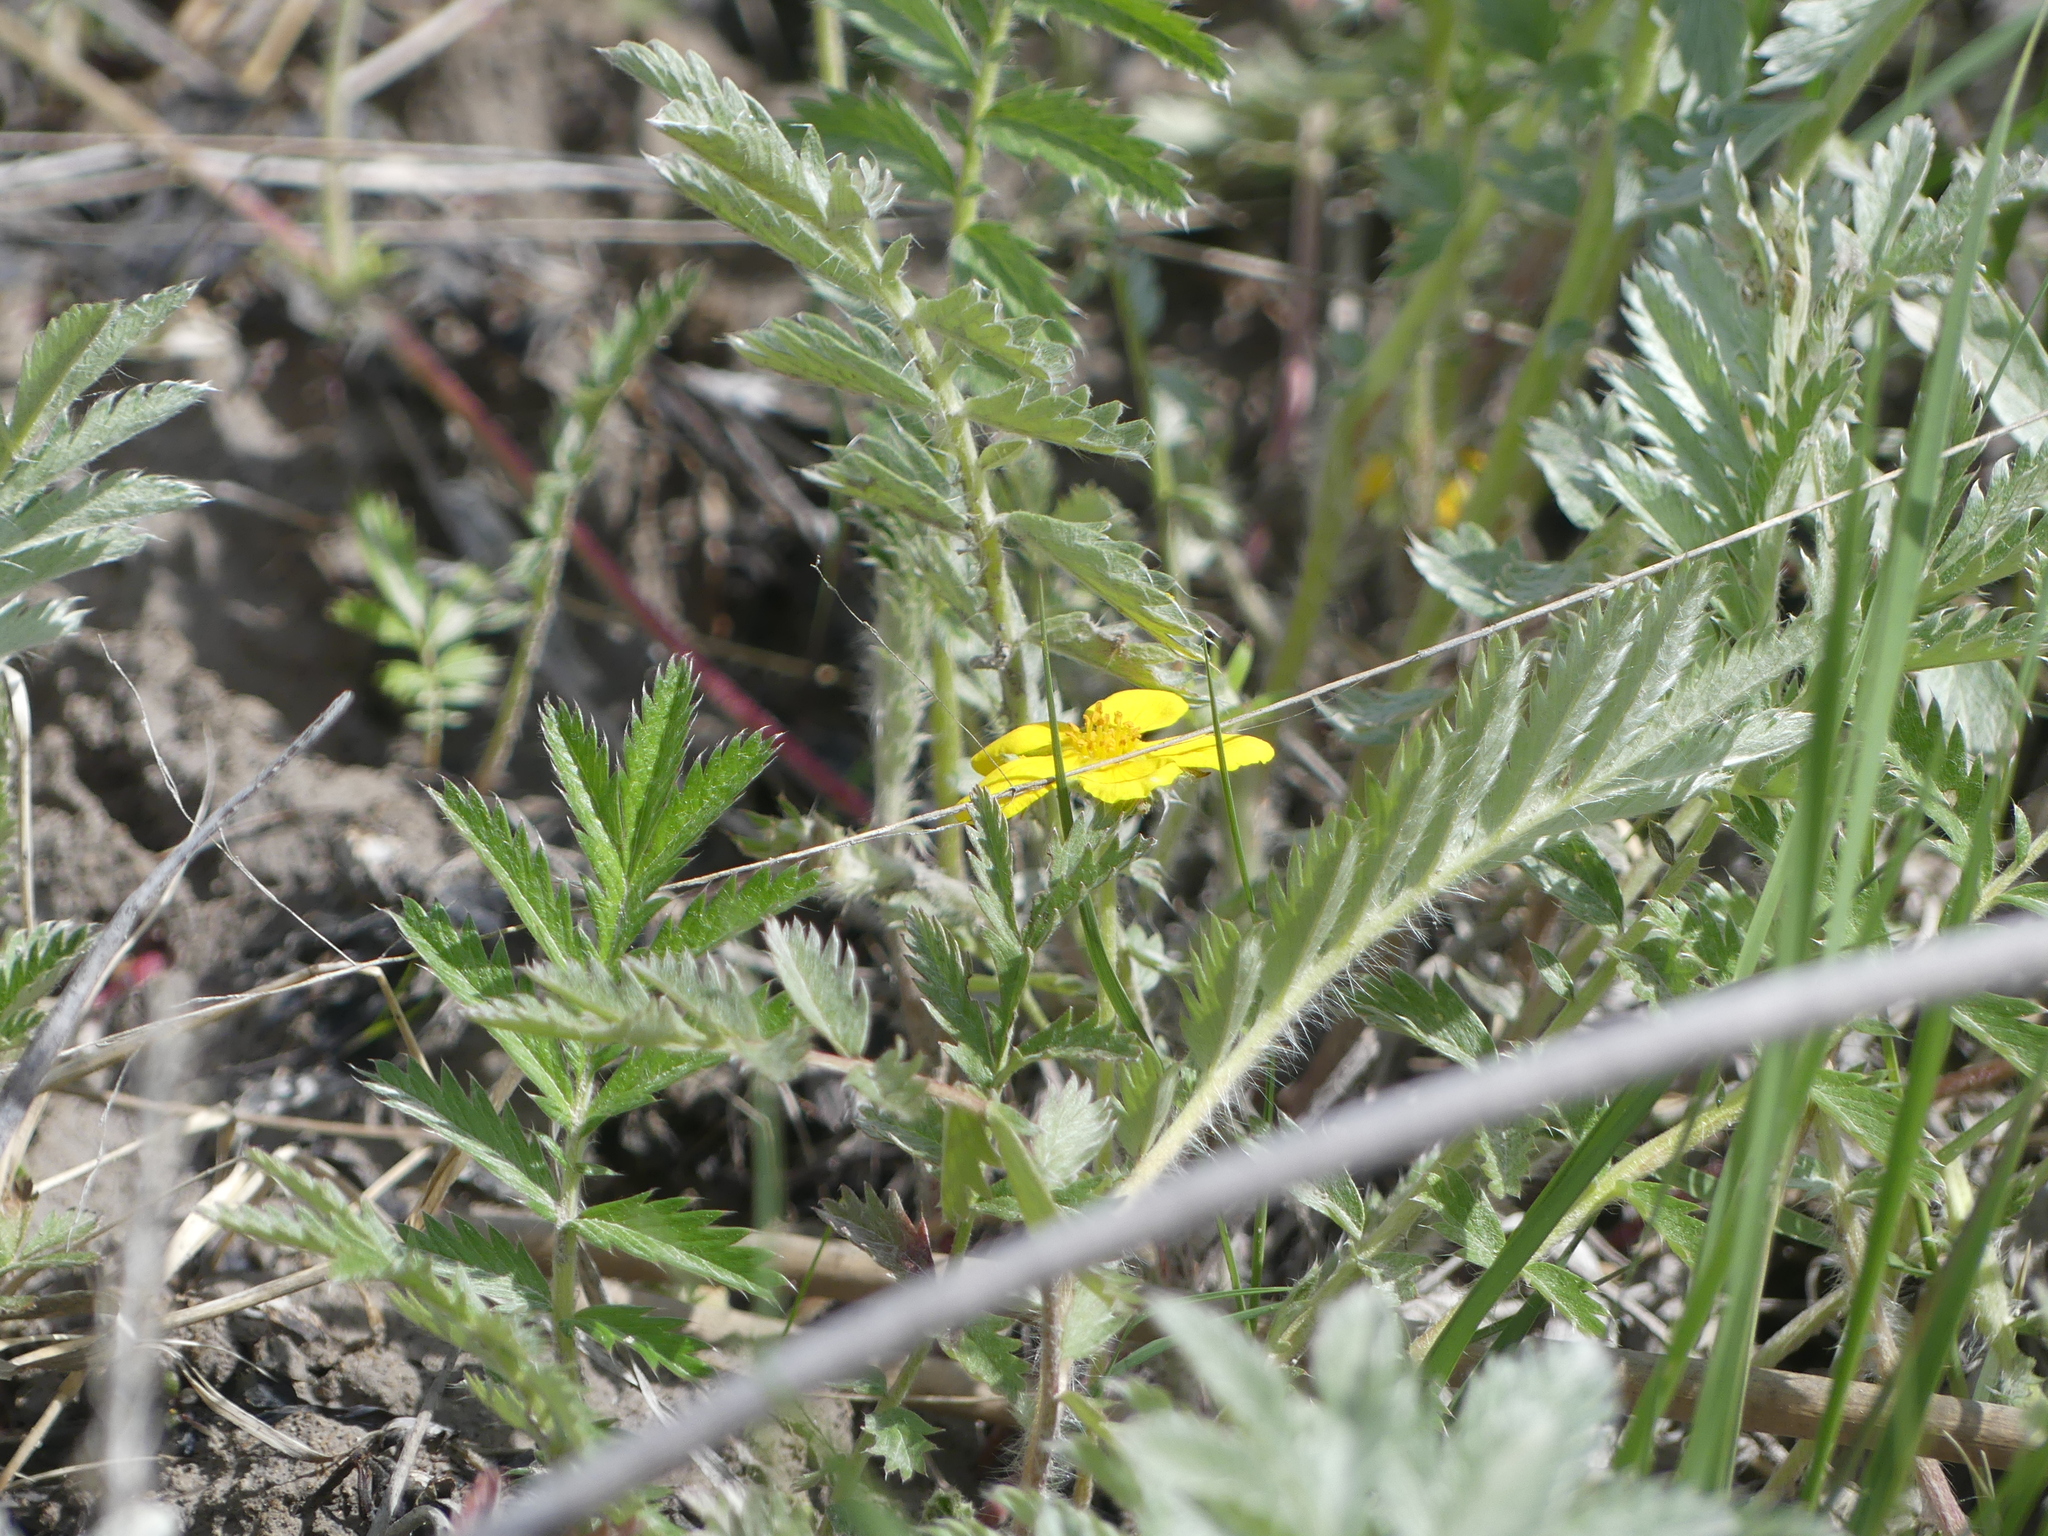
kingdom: Plantae
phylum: Tracheophyta
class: Magnoliopsida
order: Rosales
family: Rosaceae
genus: Argentina
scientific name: Argentina anserina
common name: Common silverweed
